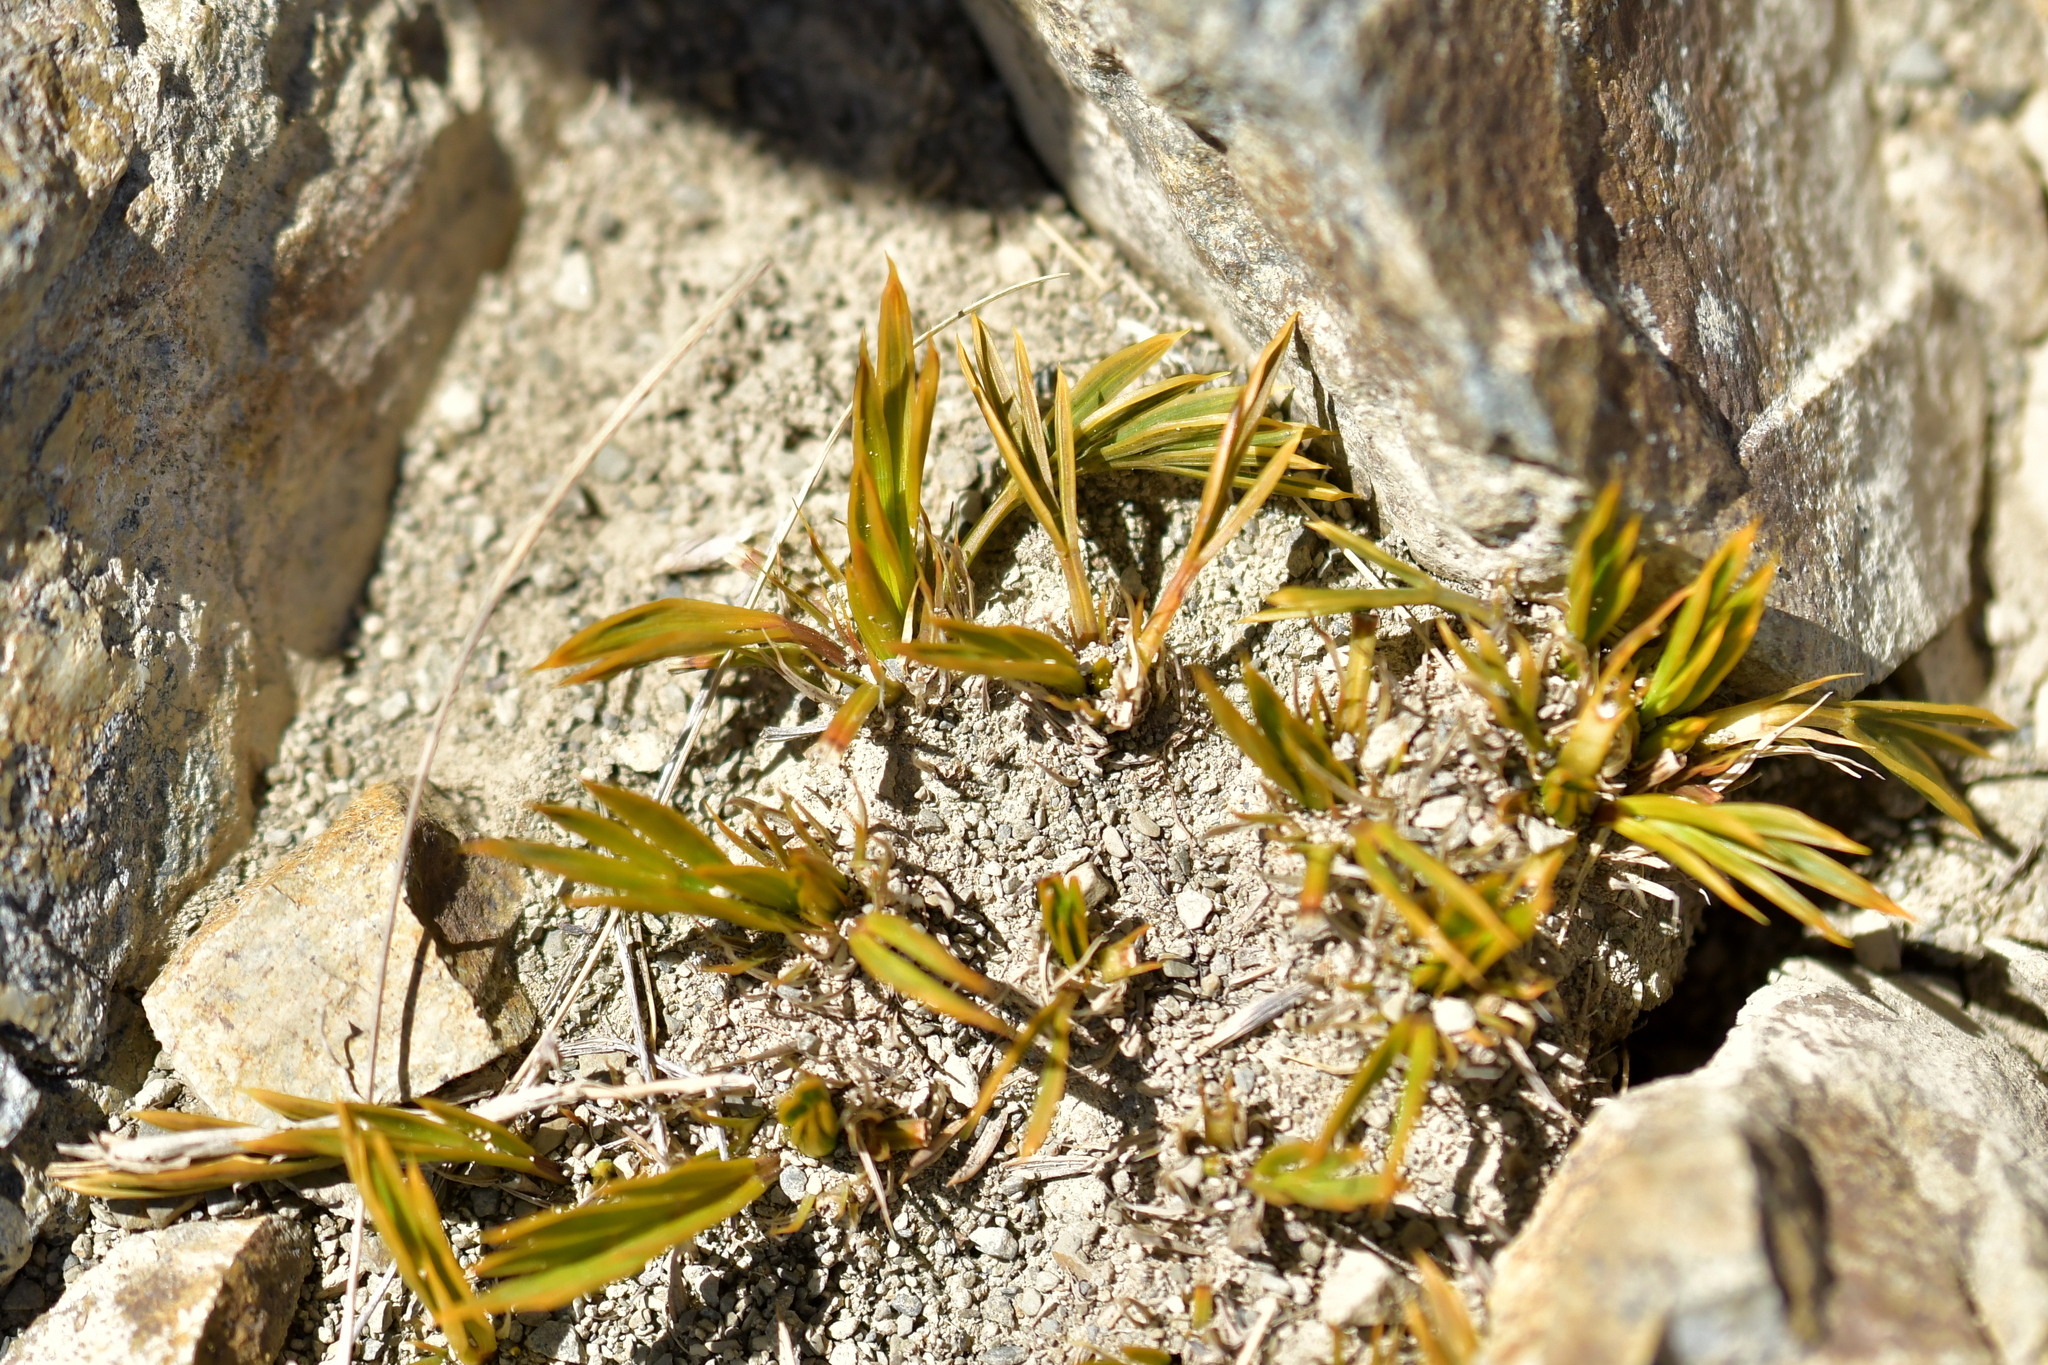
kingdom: Plantae
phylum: Tracheophyta
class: Magnoliopsida
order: Apiales
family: Apiaceae
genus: Aciphylla
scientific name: Aciphylla monroi
